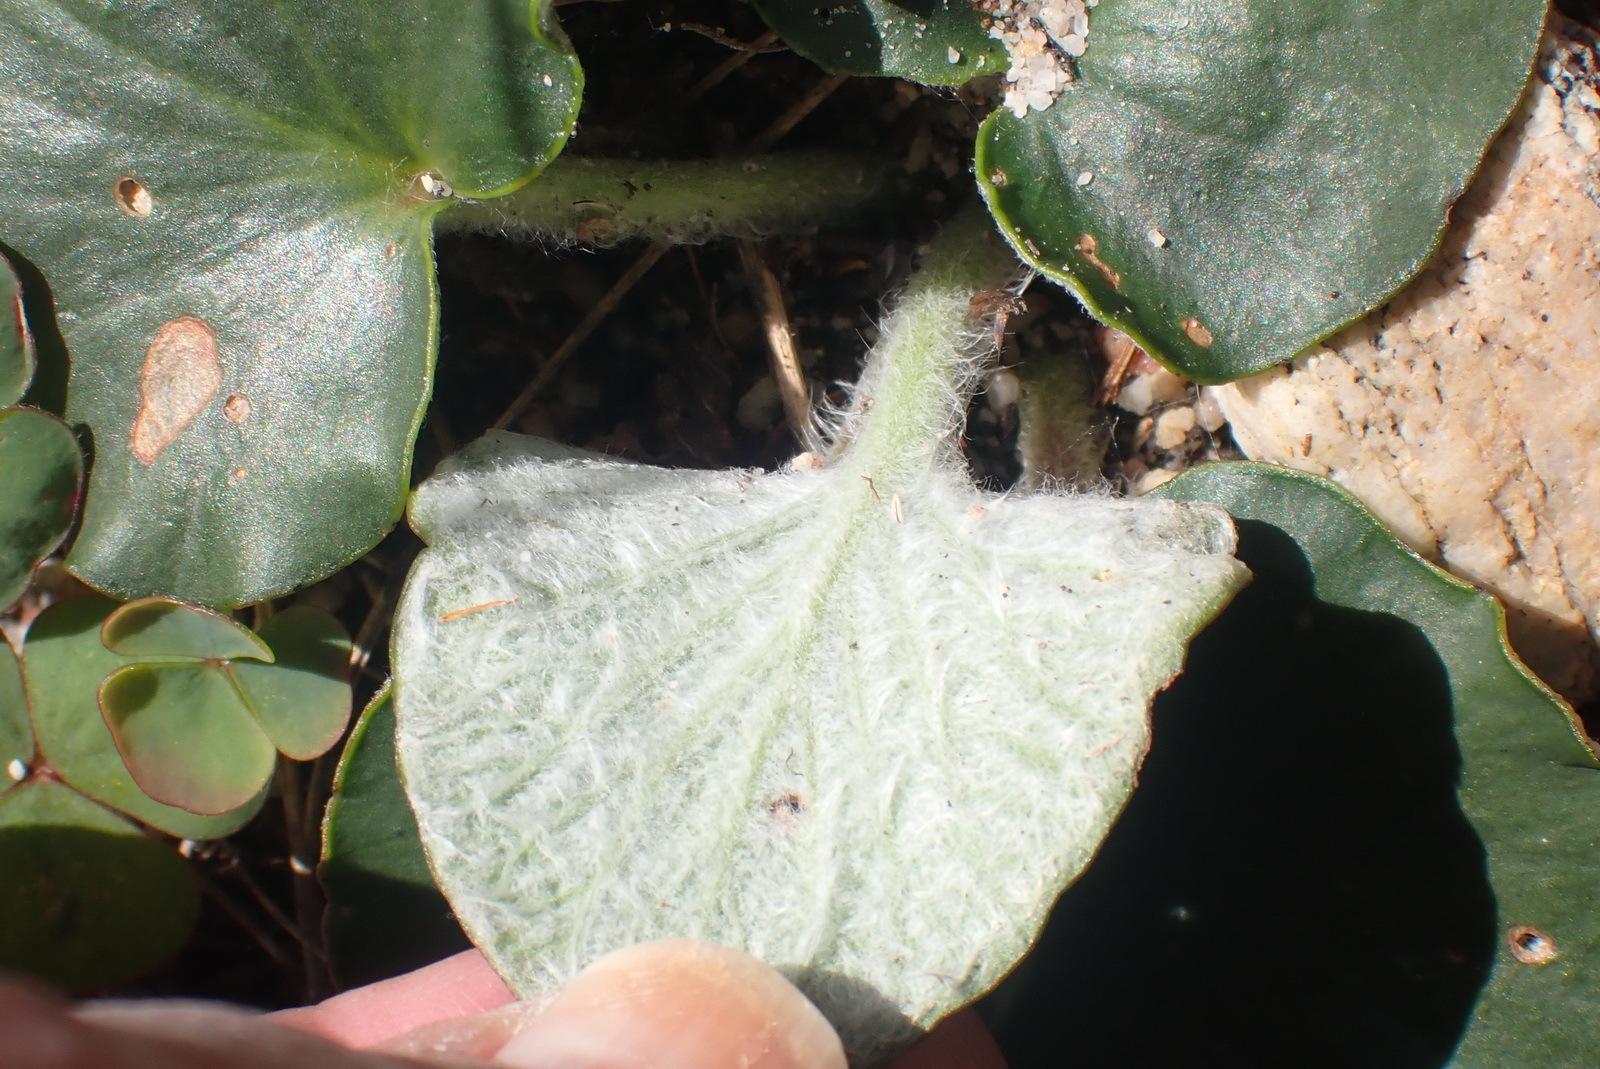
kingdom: Plantae
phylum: Tracheophyta
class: Magnoliopsida
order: Geraniales
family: Geraniaceae
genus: Pelargonium
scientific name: Pelargonium asarifolium
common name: Asarum-leaf pelargonium
